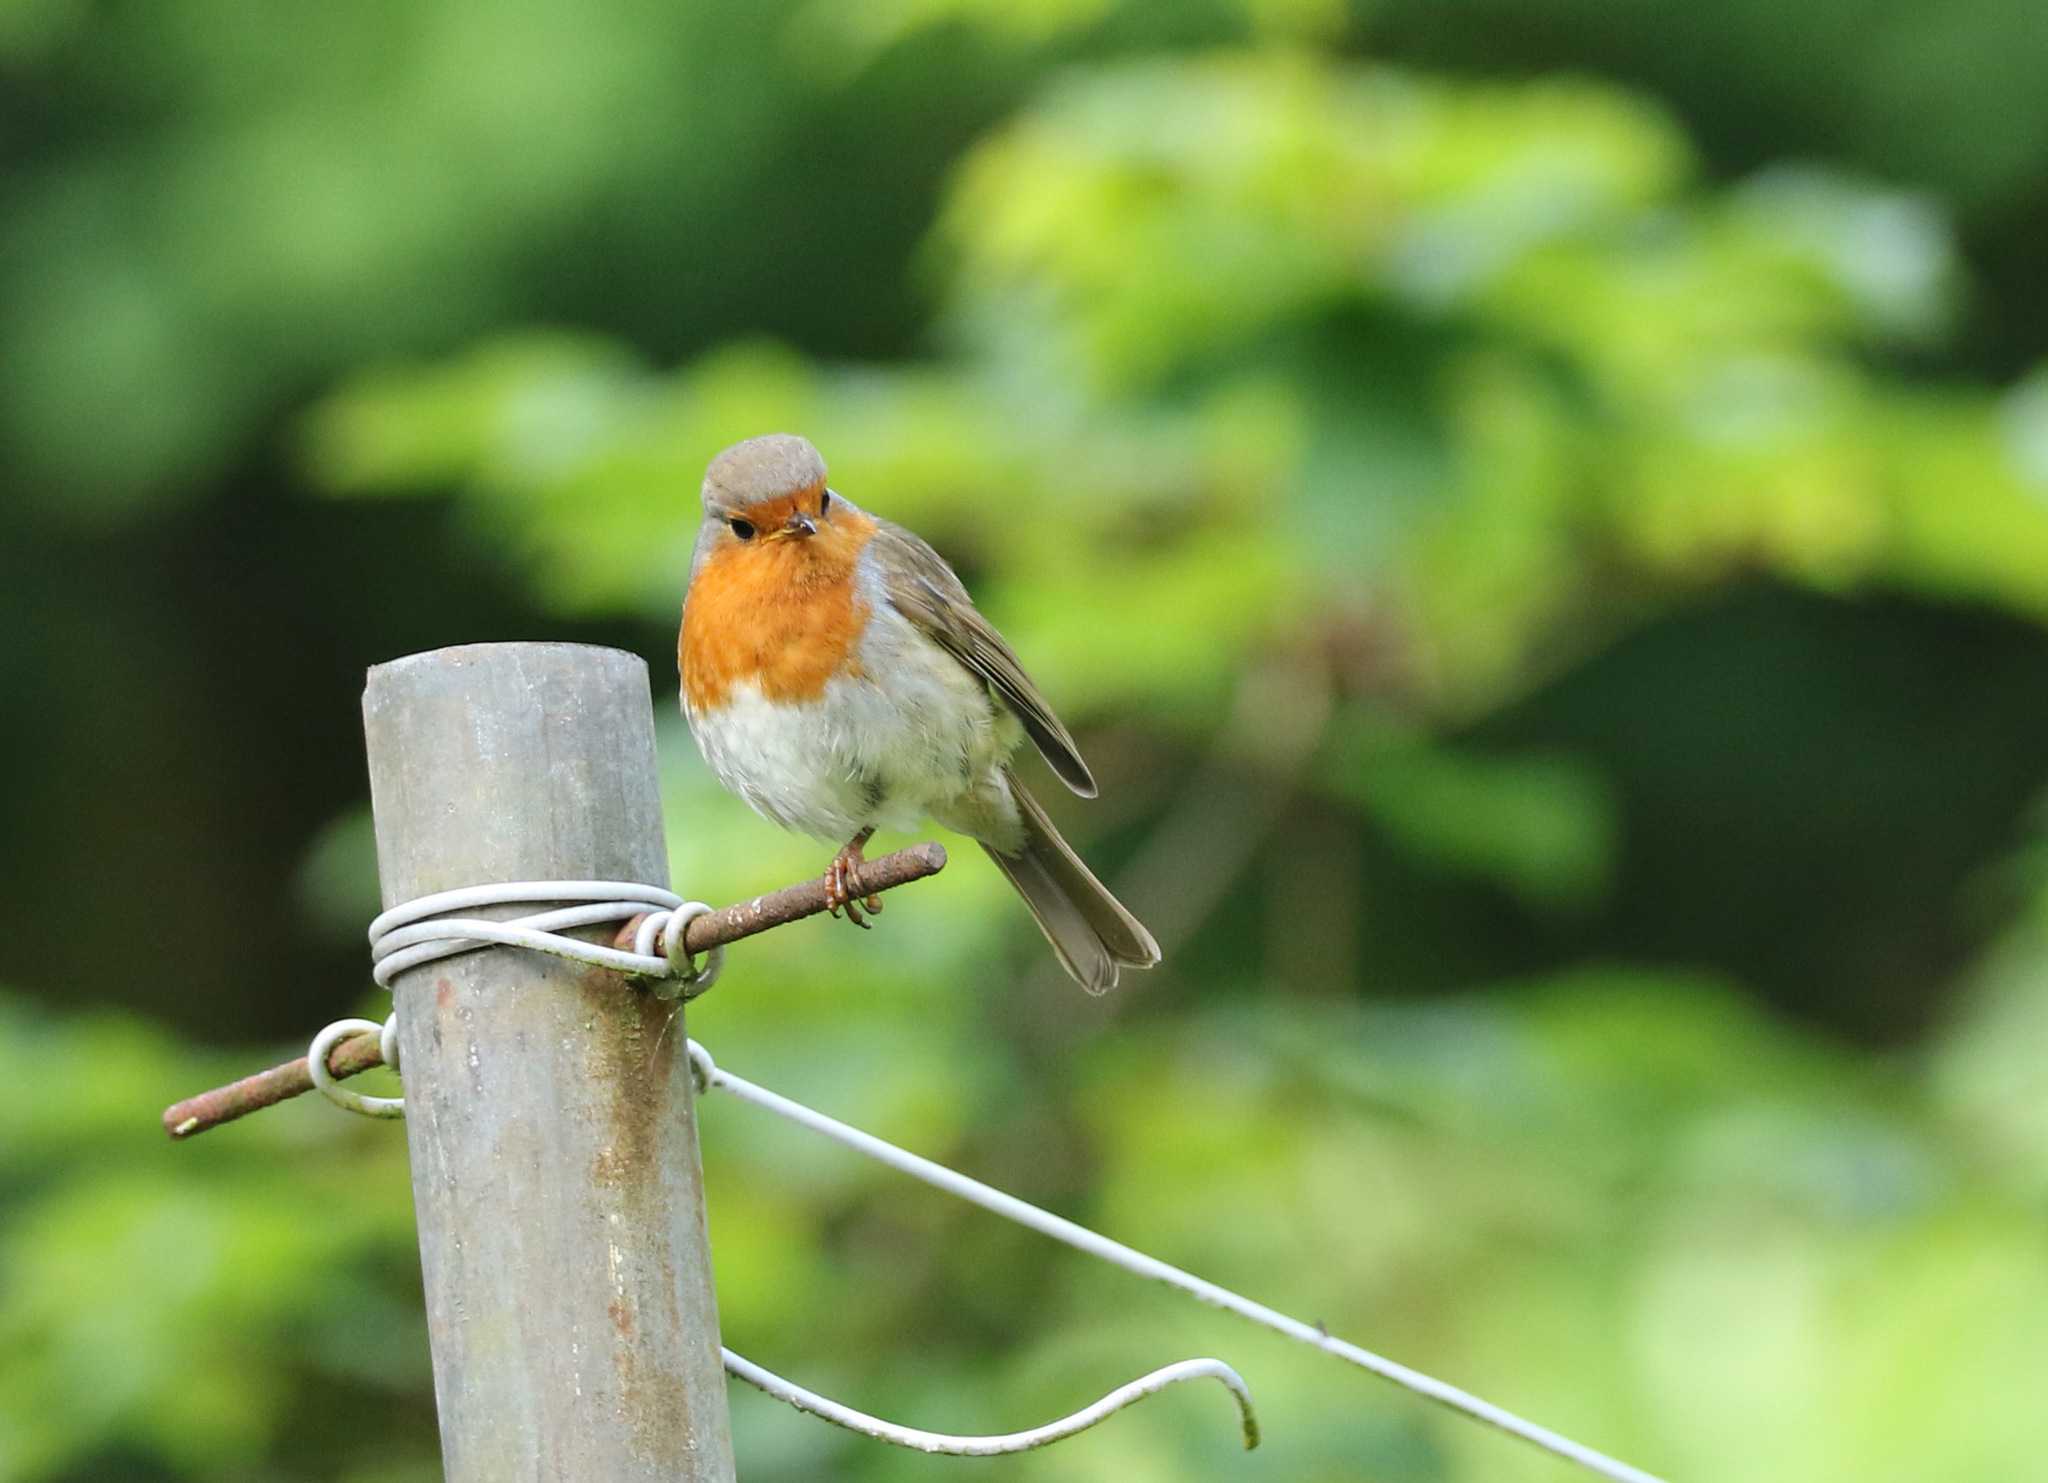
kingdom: Animalia
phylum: Chordata
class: Aves
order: Passeriformes
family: Muscicapidae
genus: Erithacus
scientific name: Erithacus rubecula
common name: European robin
